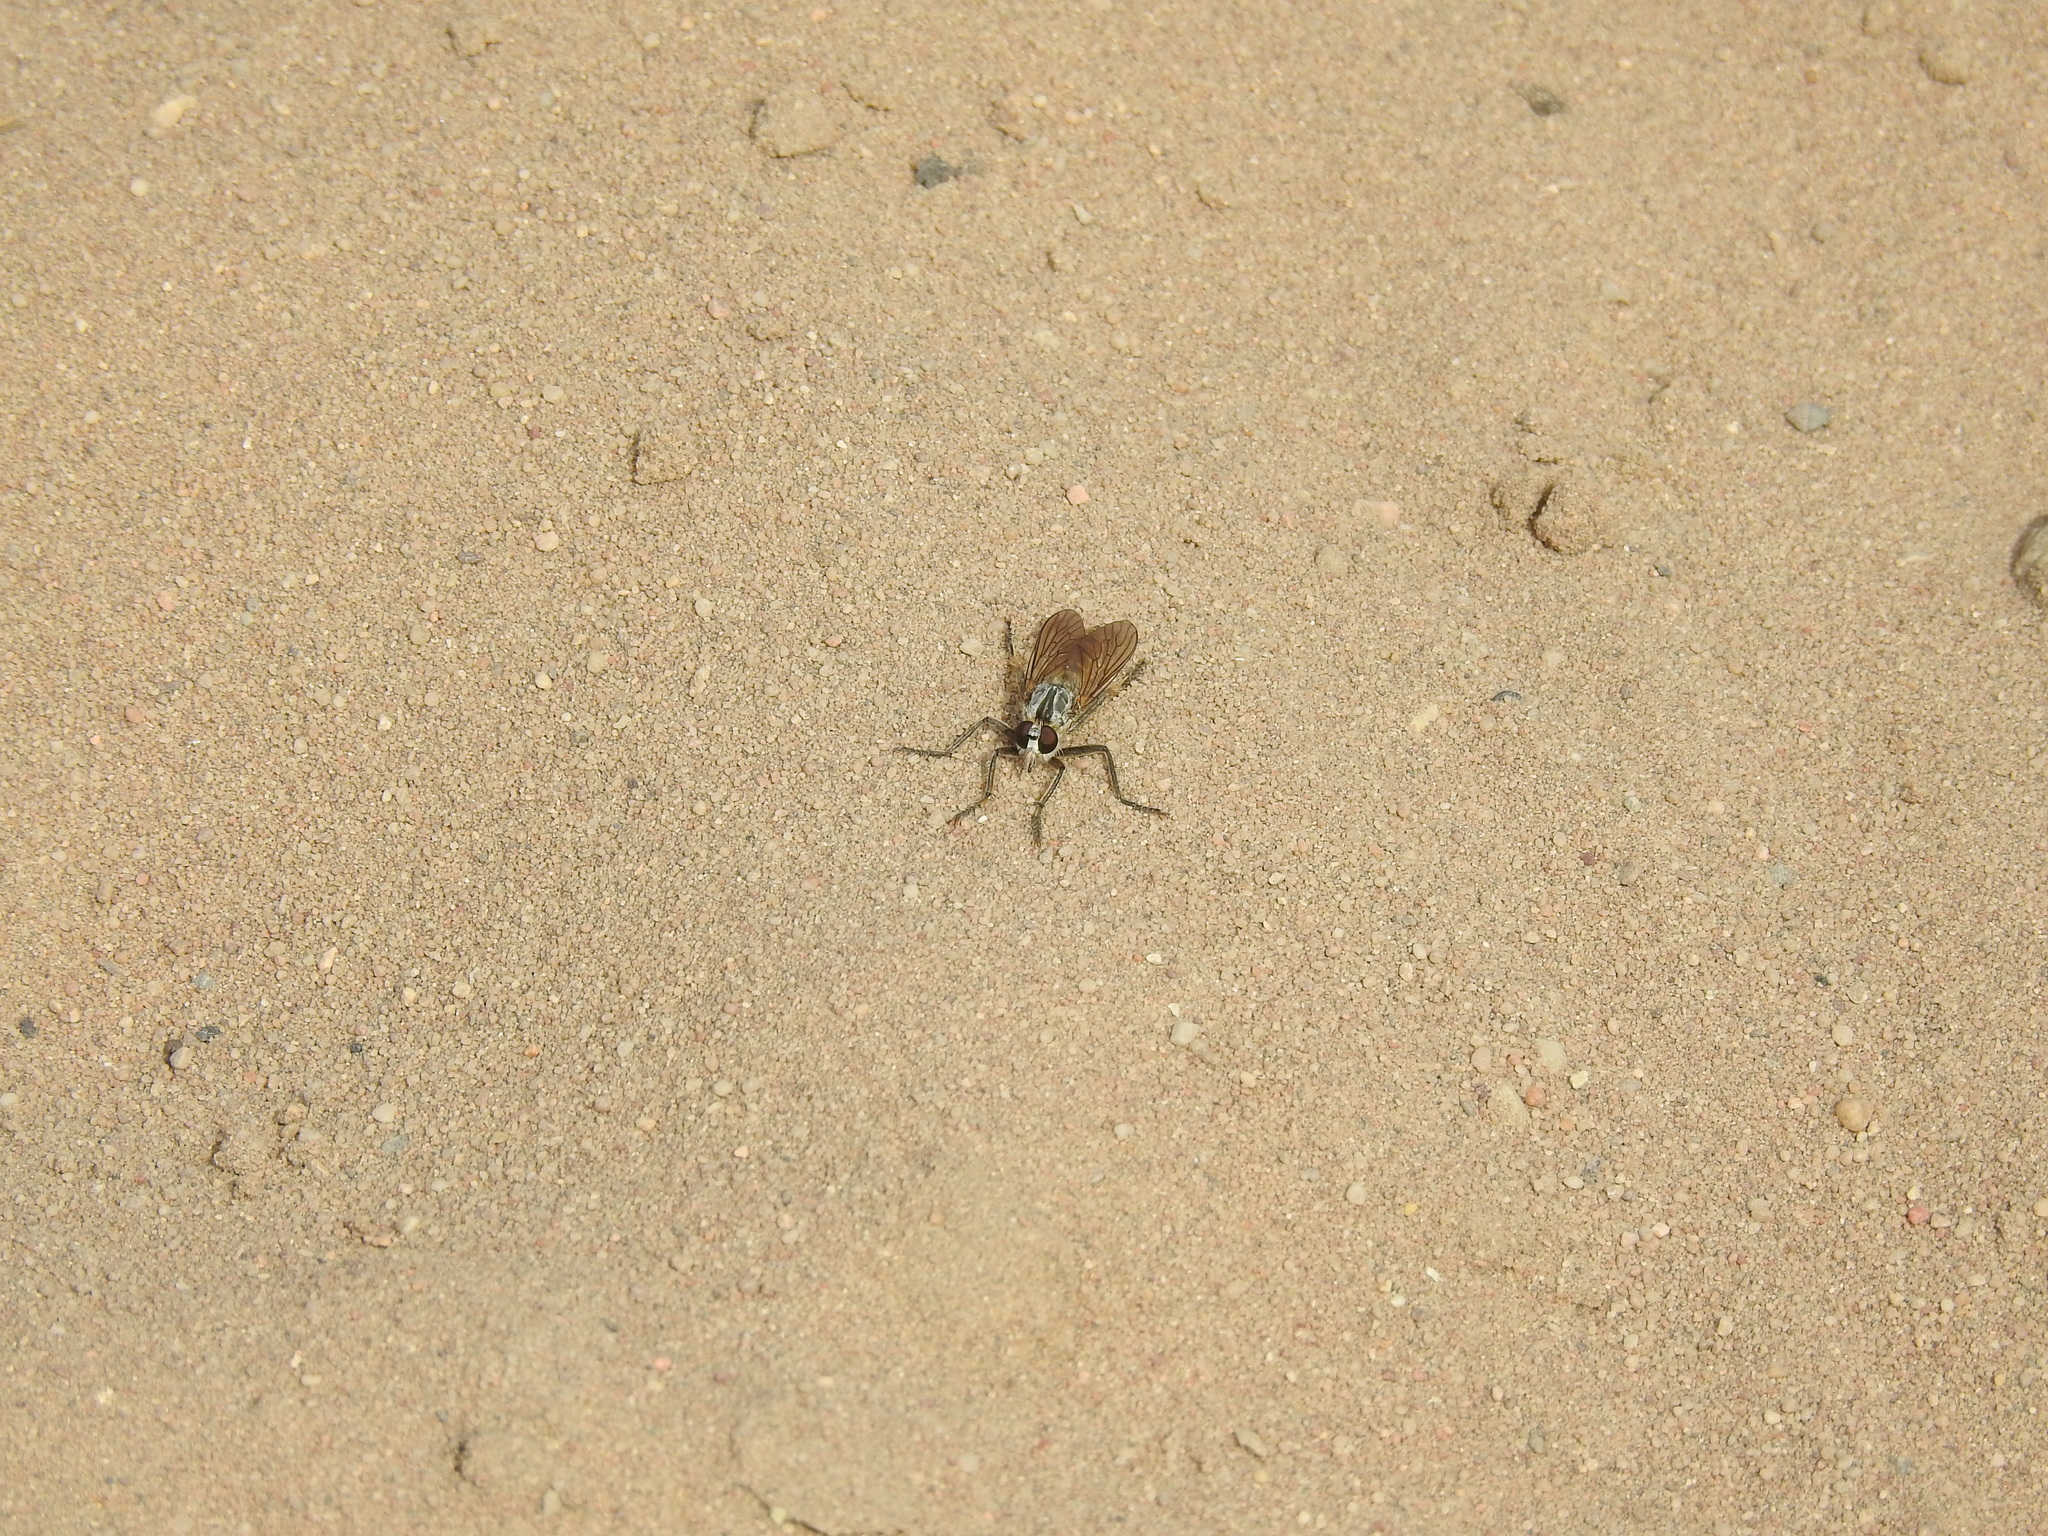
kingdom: Animalia
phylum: Arthropoda
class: Insecta
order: Diptera
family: Asilidae
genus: Philonicus
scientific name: Philonicus albiceps
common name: Dune robberfly
